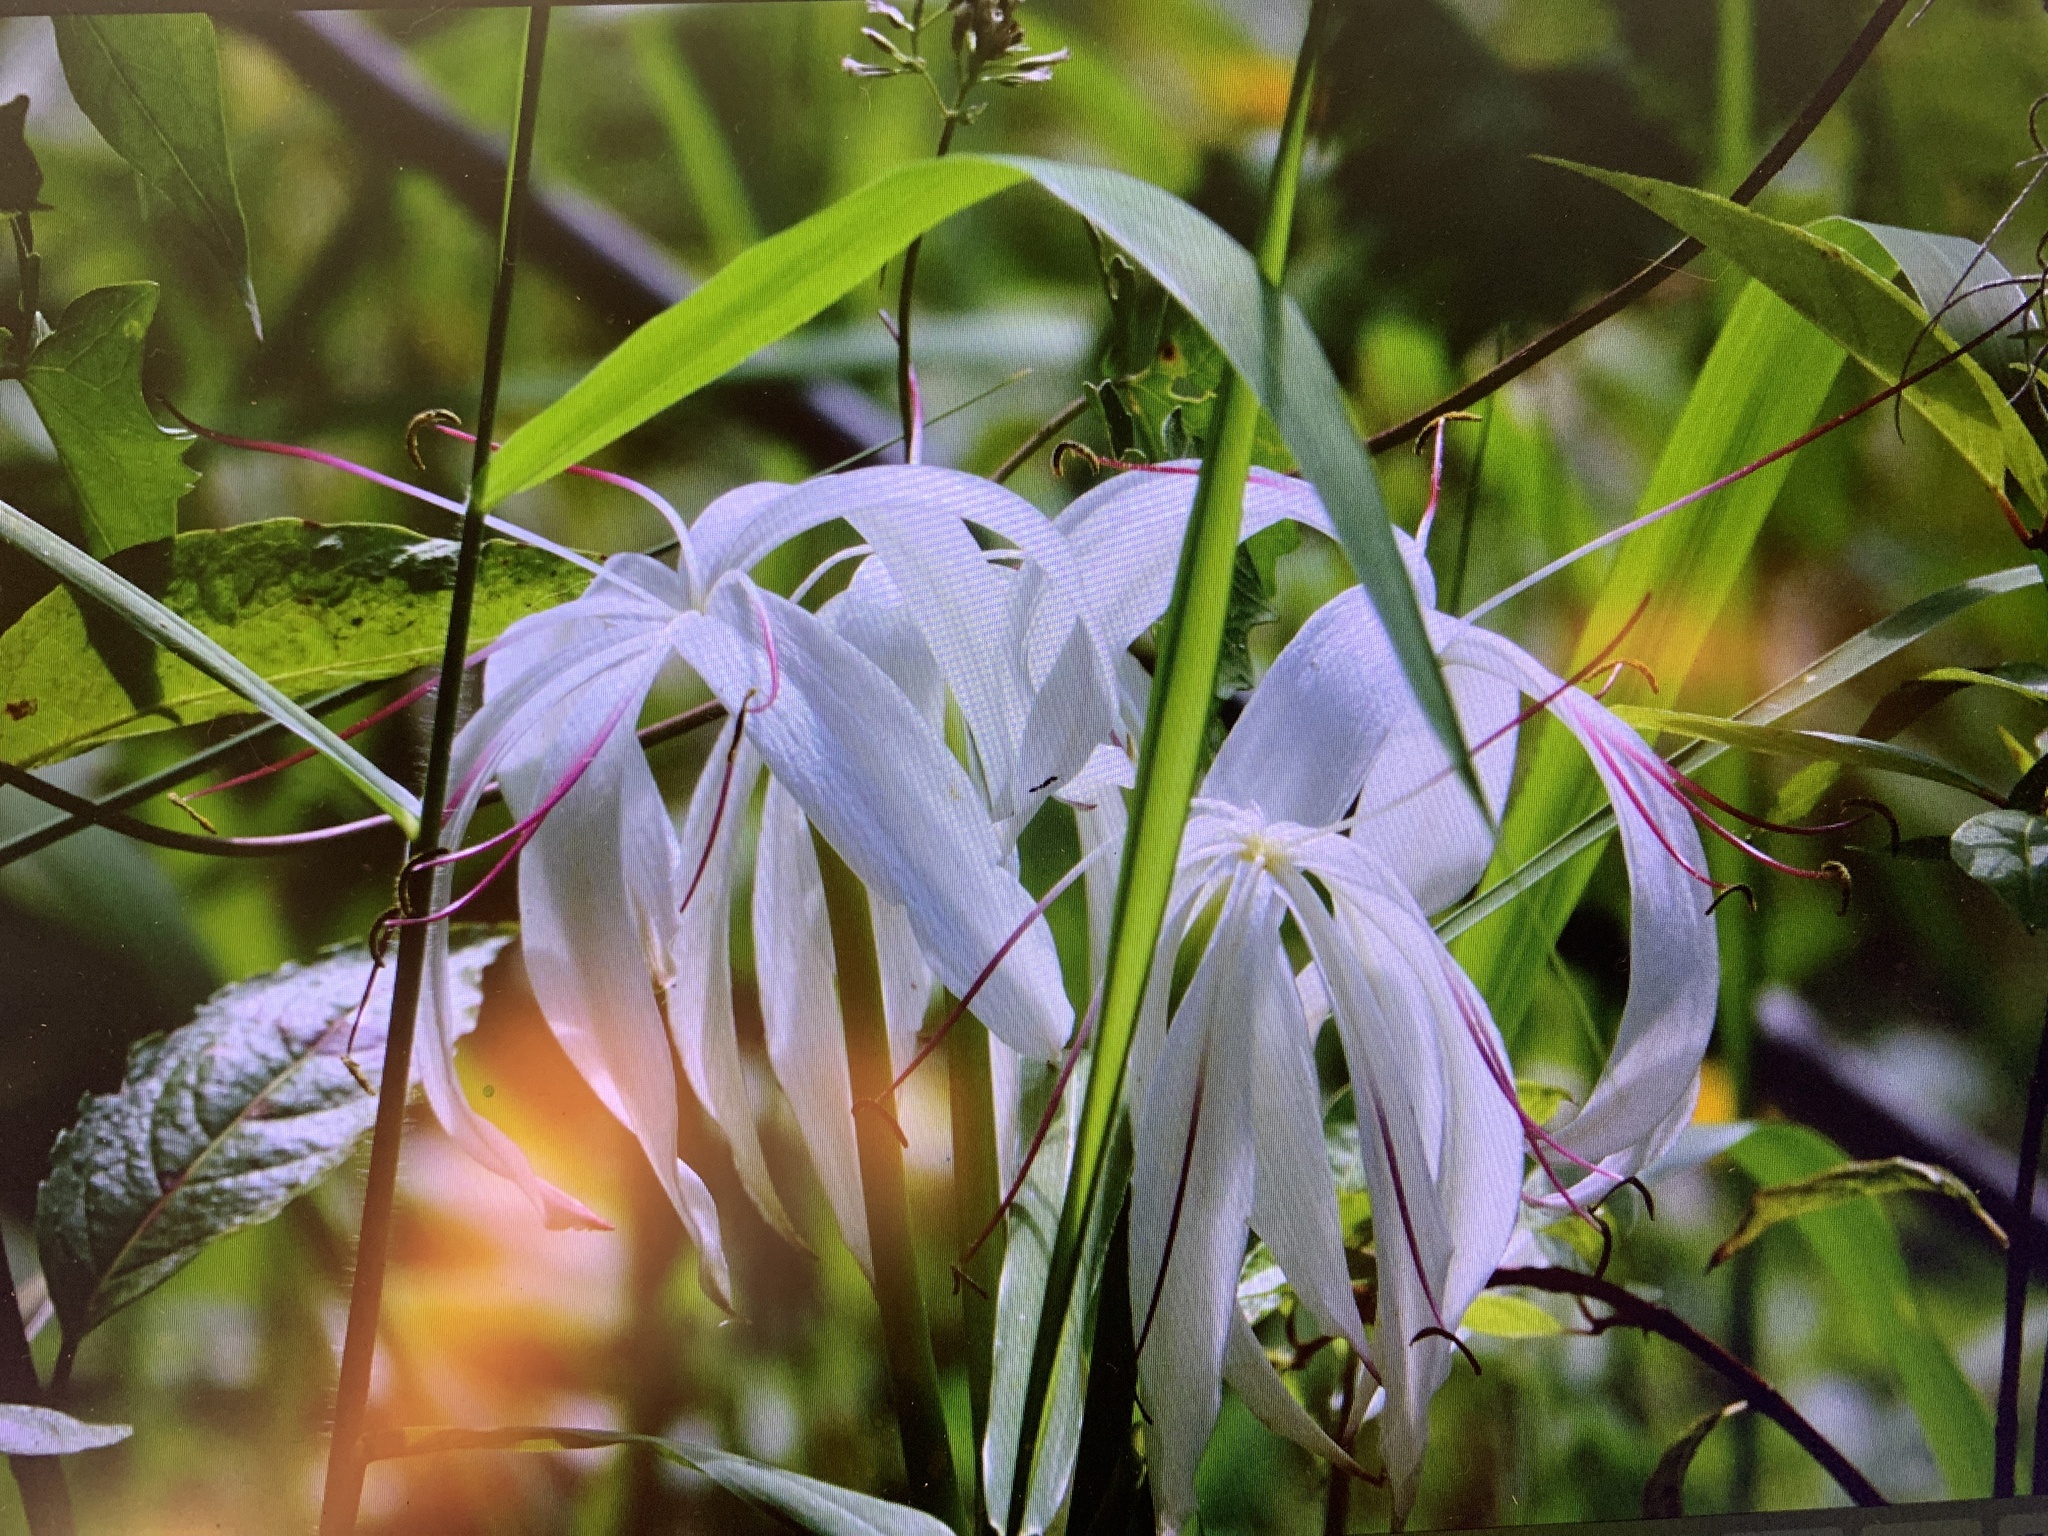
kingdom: Plantae
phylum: Tracheophyta
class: Liliopsida
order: Asparagales
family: Amaryllidaceae
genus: Crinum
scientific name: Crinum americanum
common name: Florida swamp-lily
